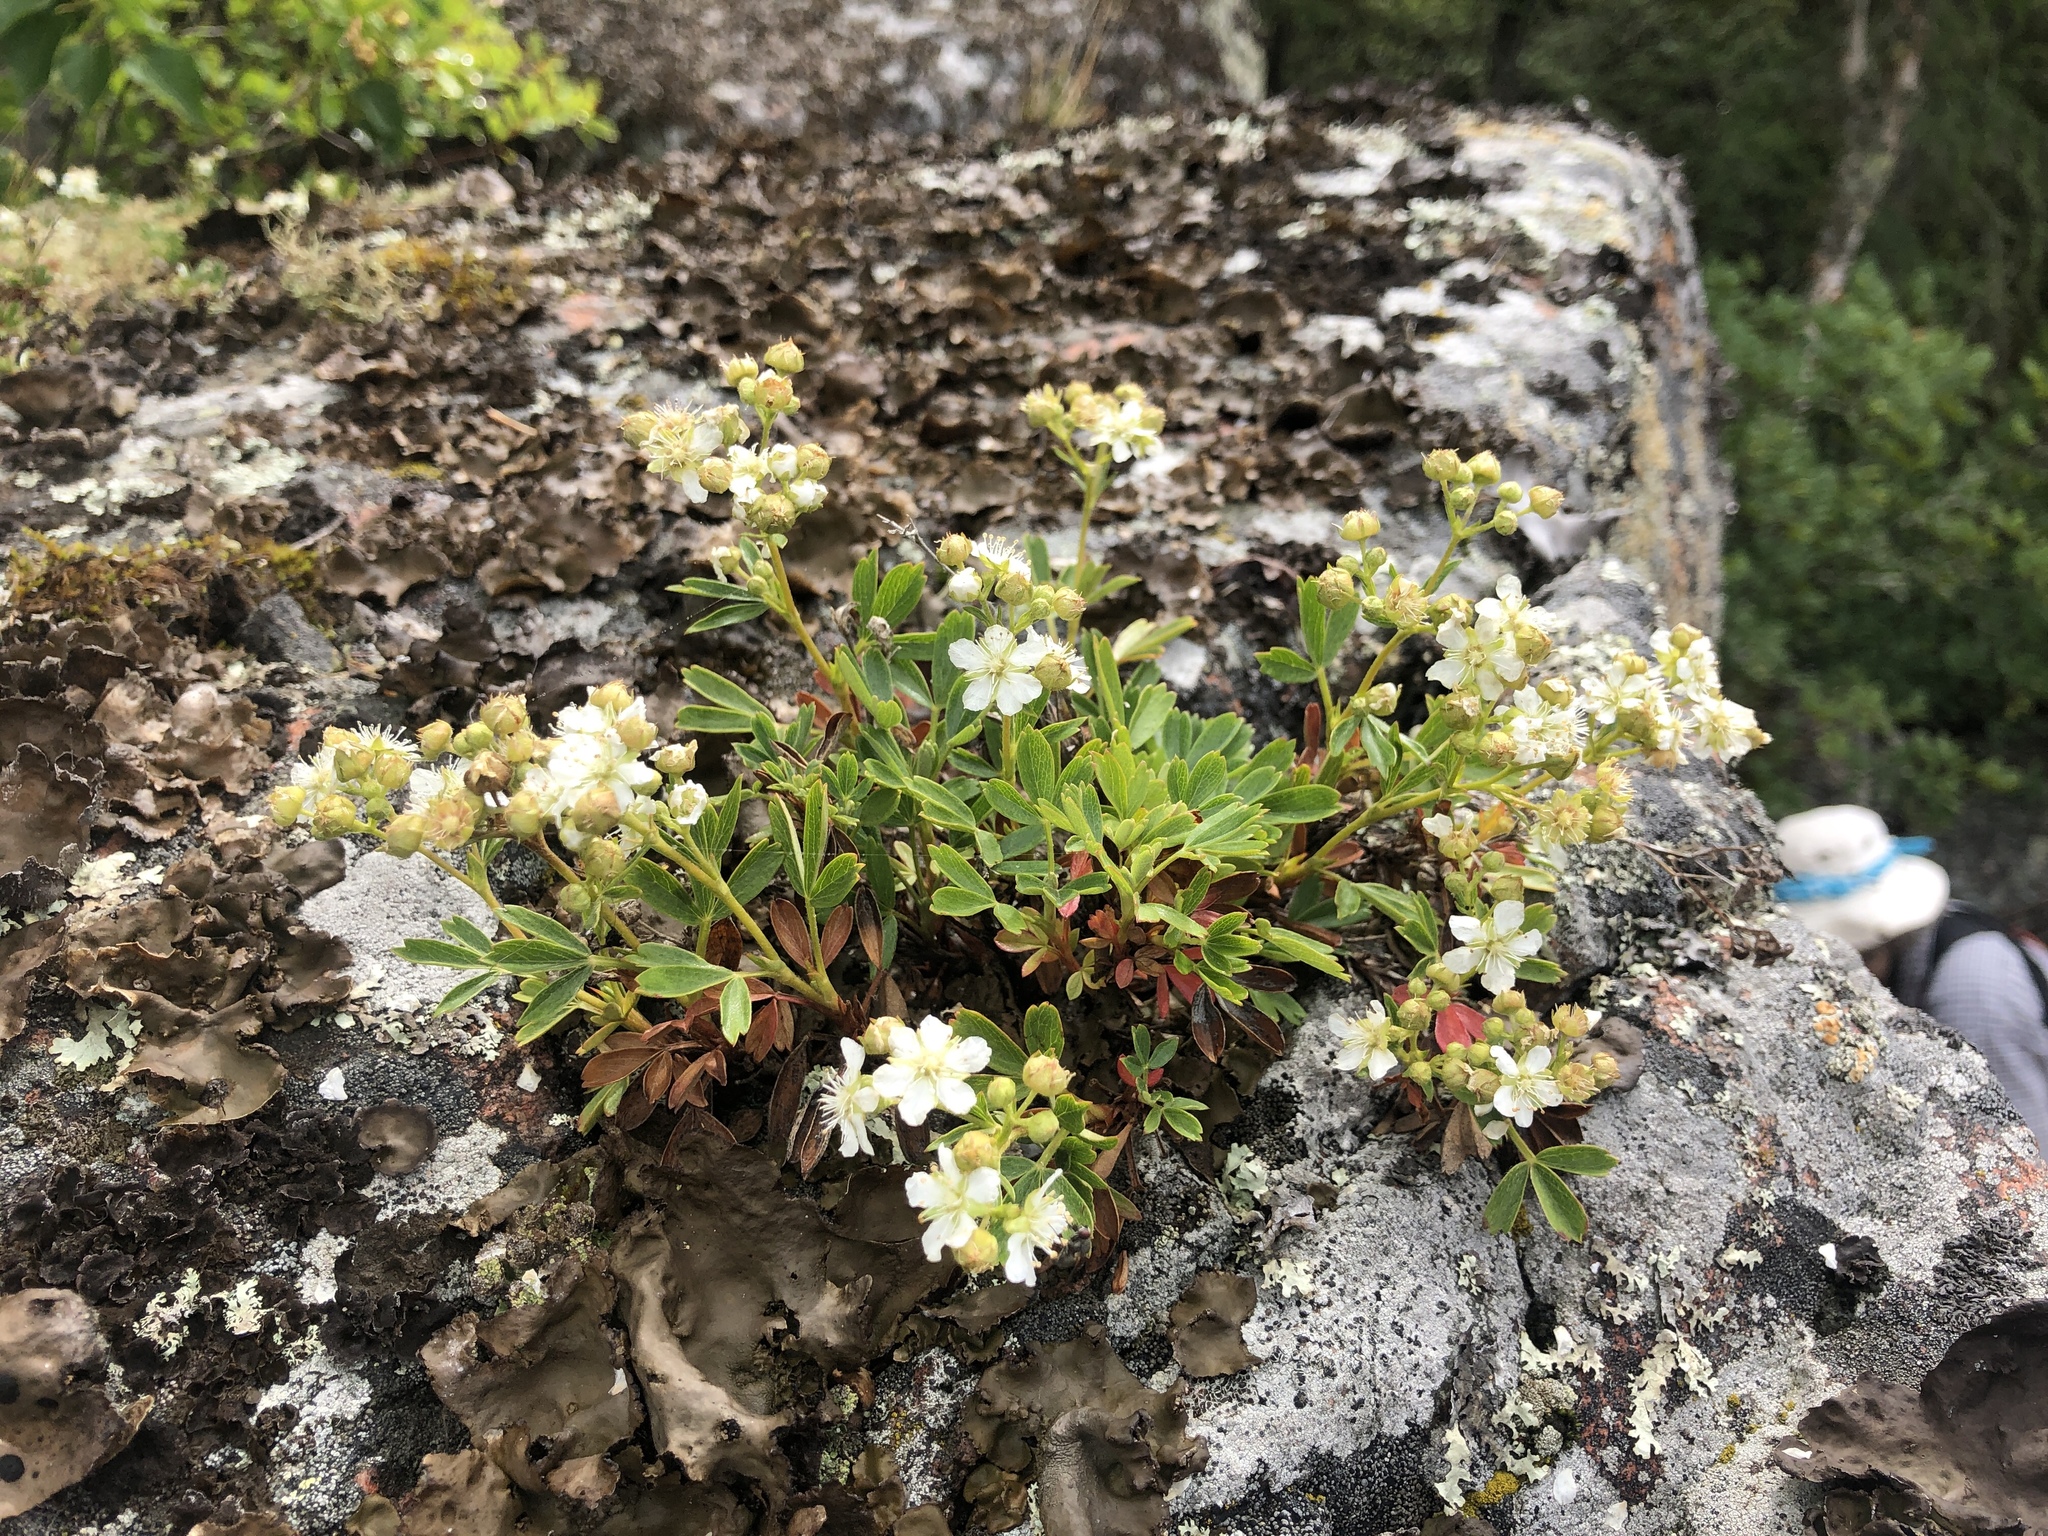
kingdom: Plantae
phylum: Tracheophyta
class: Magnoliopsida
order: Rosales
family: Rosaceae
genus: Sibbaldia
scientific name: Sibbaldia tridentata
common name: Three-toothed cinquefoil
